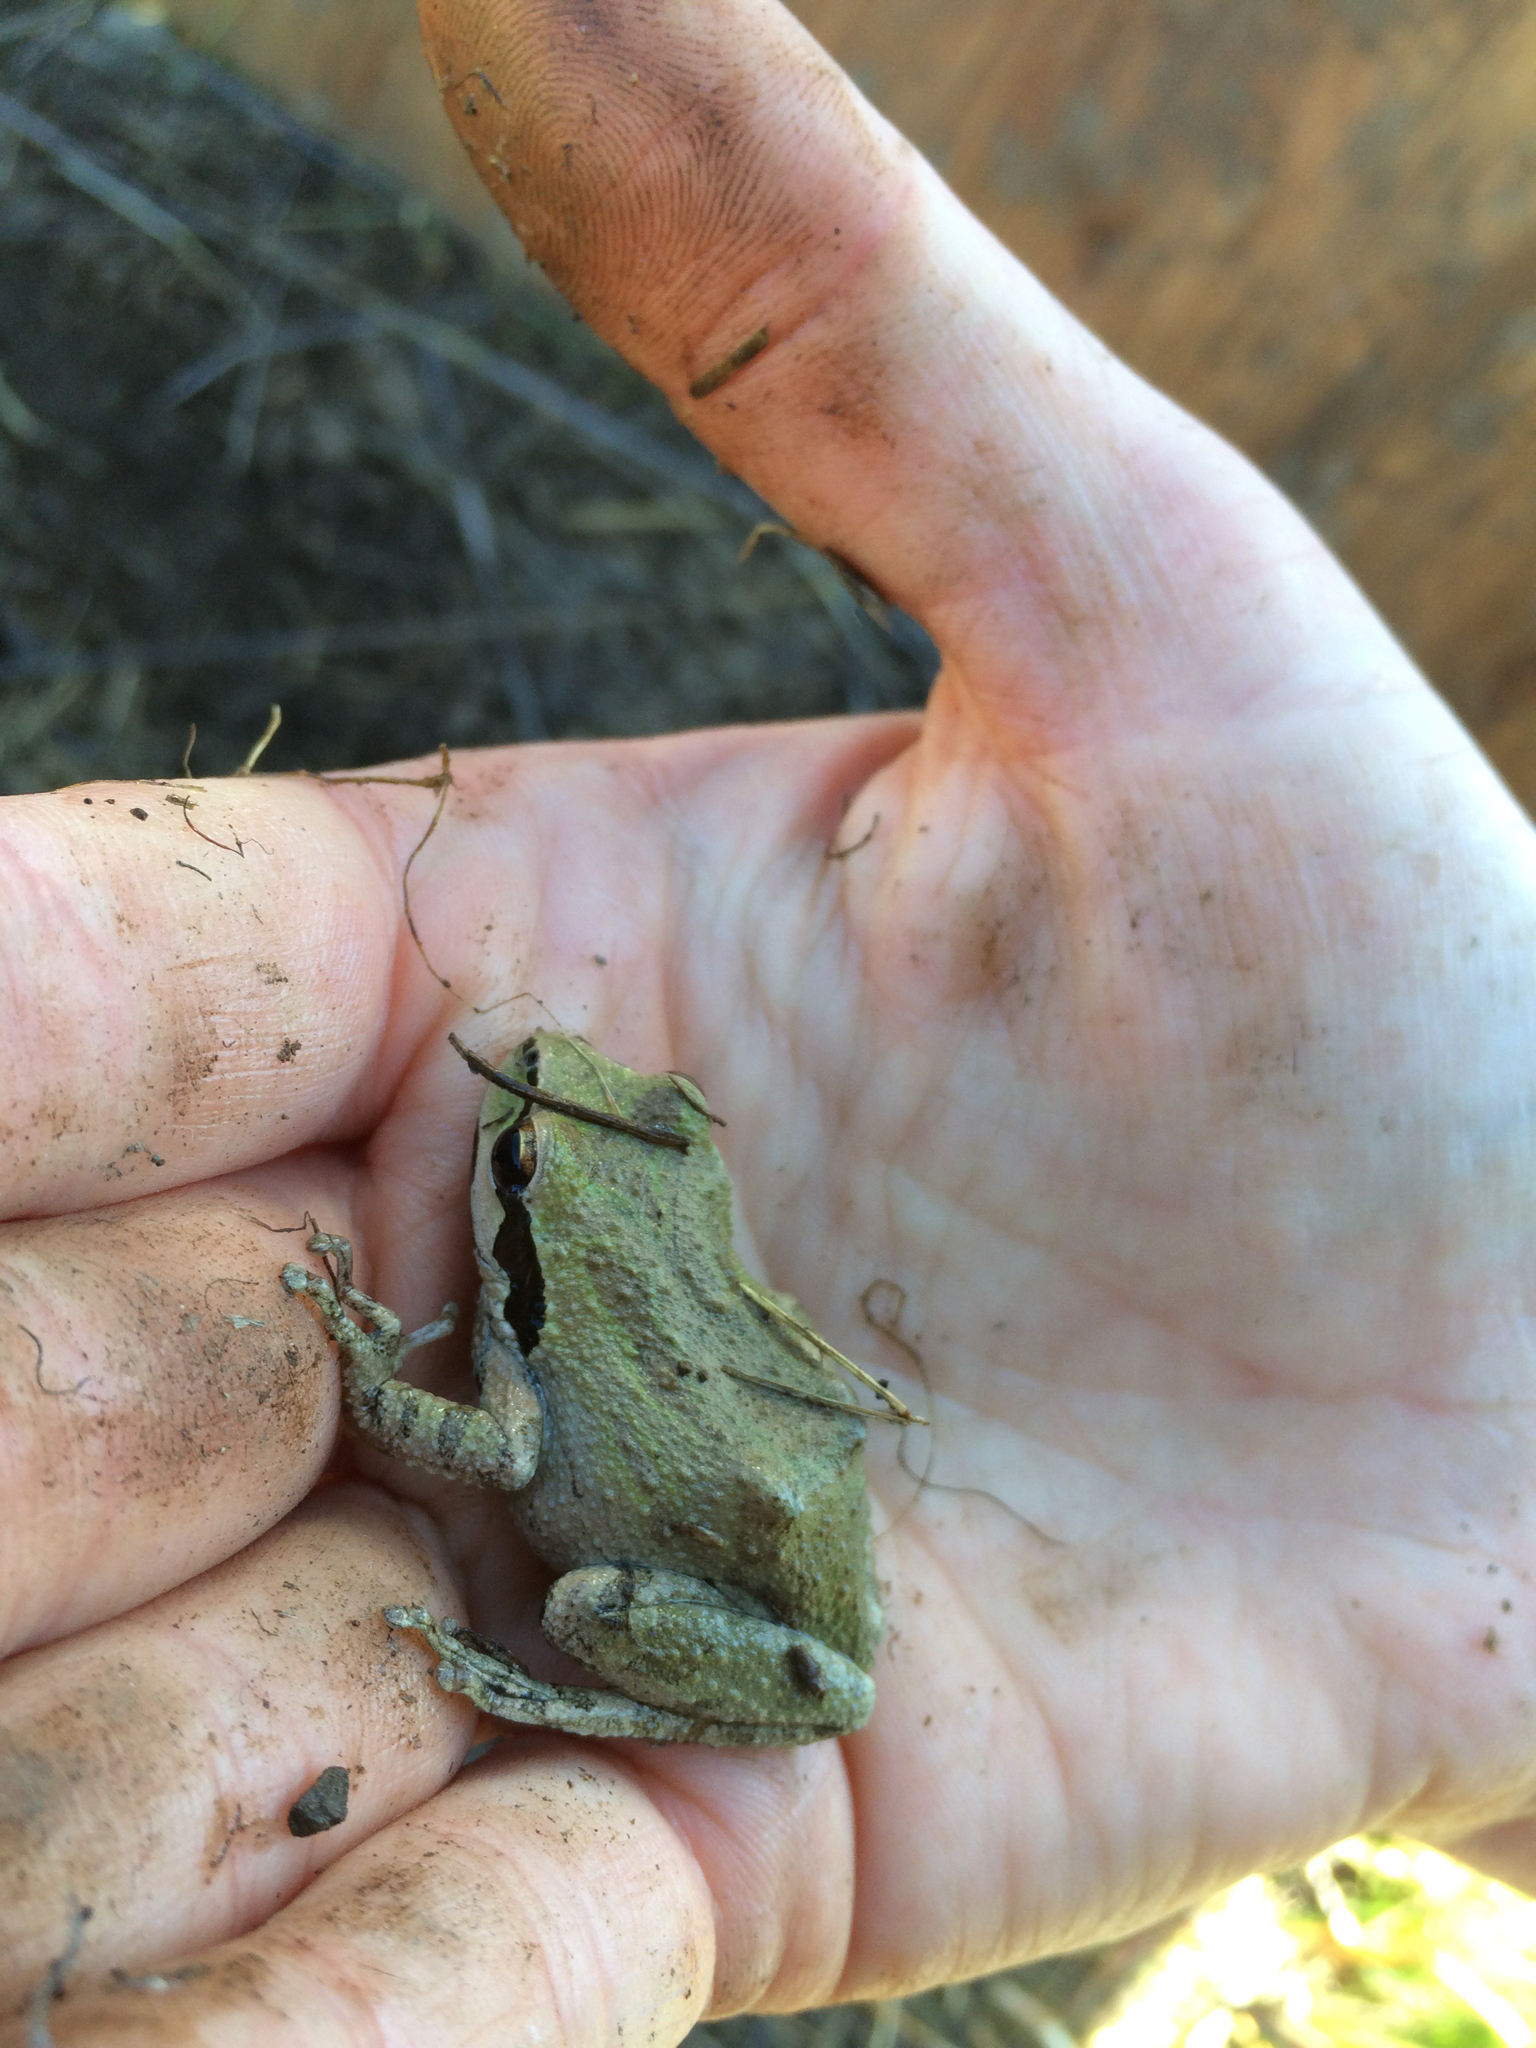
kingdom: Animalia
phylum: Chordata
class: Amphibia
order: Anura
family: Hylidae
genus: Pseudacris
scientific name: Pseudacris regilla
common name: Pacific chorus frog
